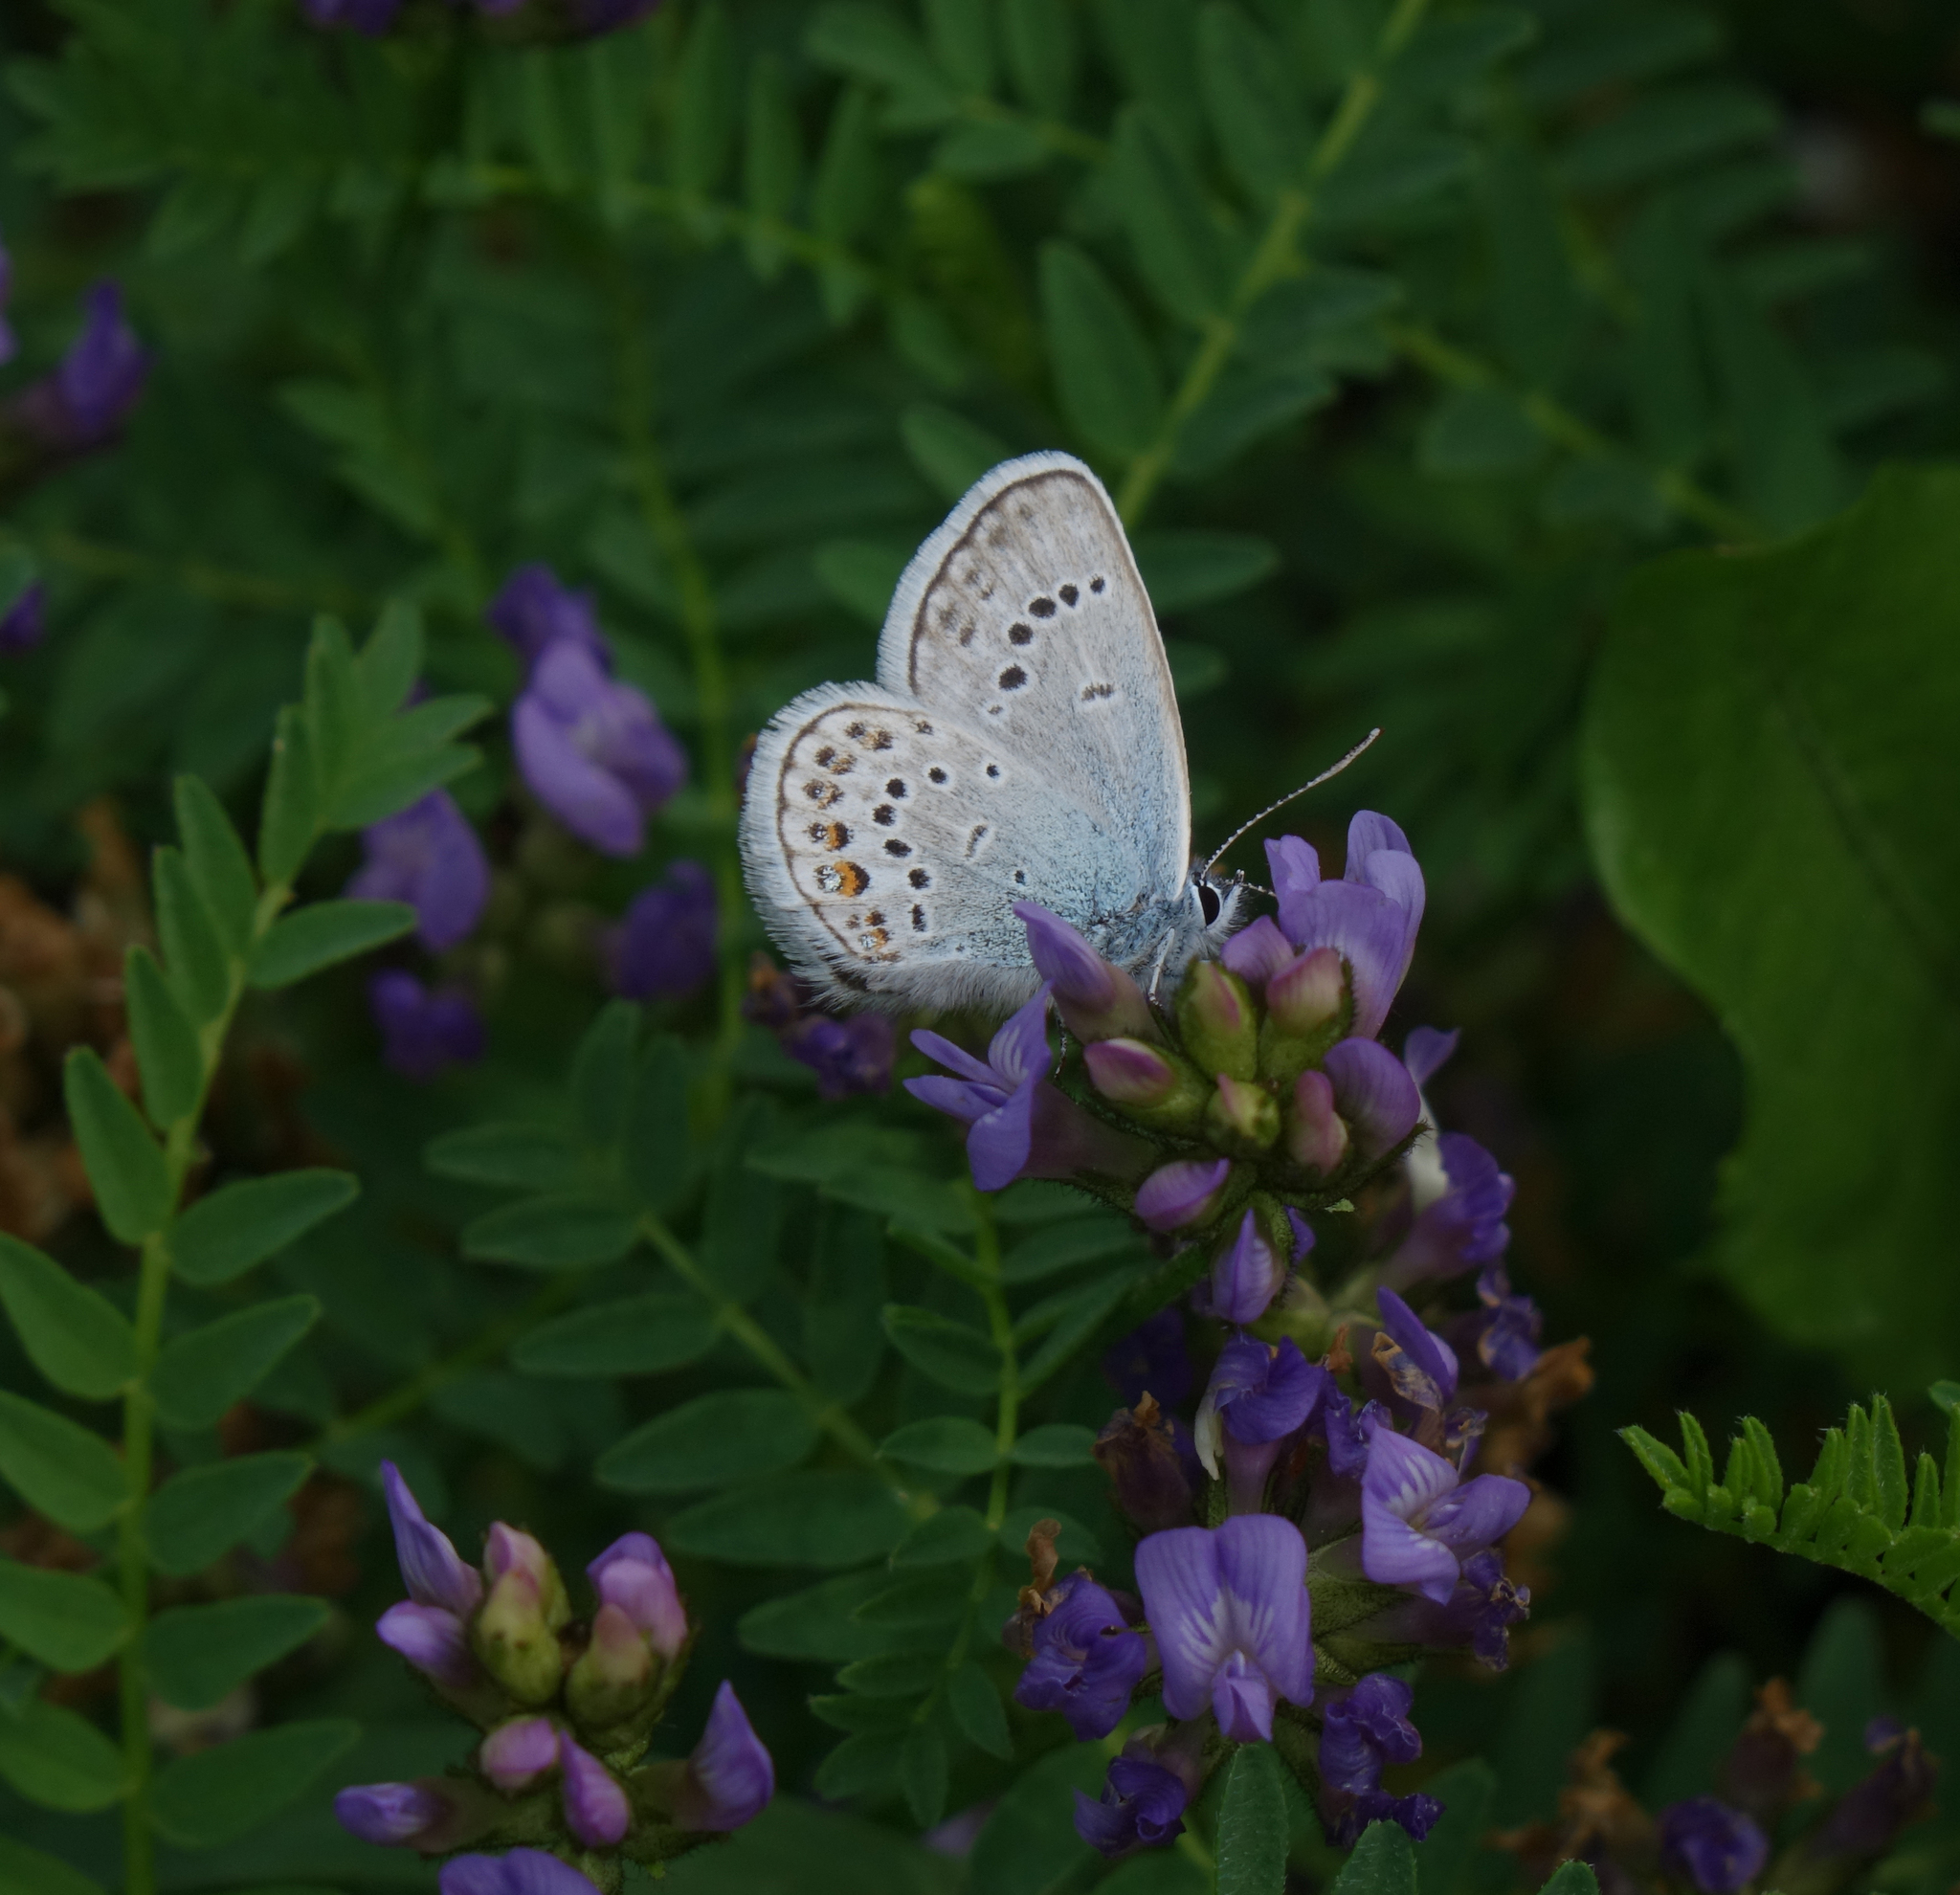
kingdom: Animalia
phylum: Arthropoda
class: Insecta
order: Lepidoptera
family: Lycaenidae
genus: Plebejus
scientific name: Plebejus argus
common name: Silver-studded blue
